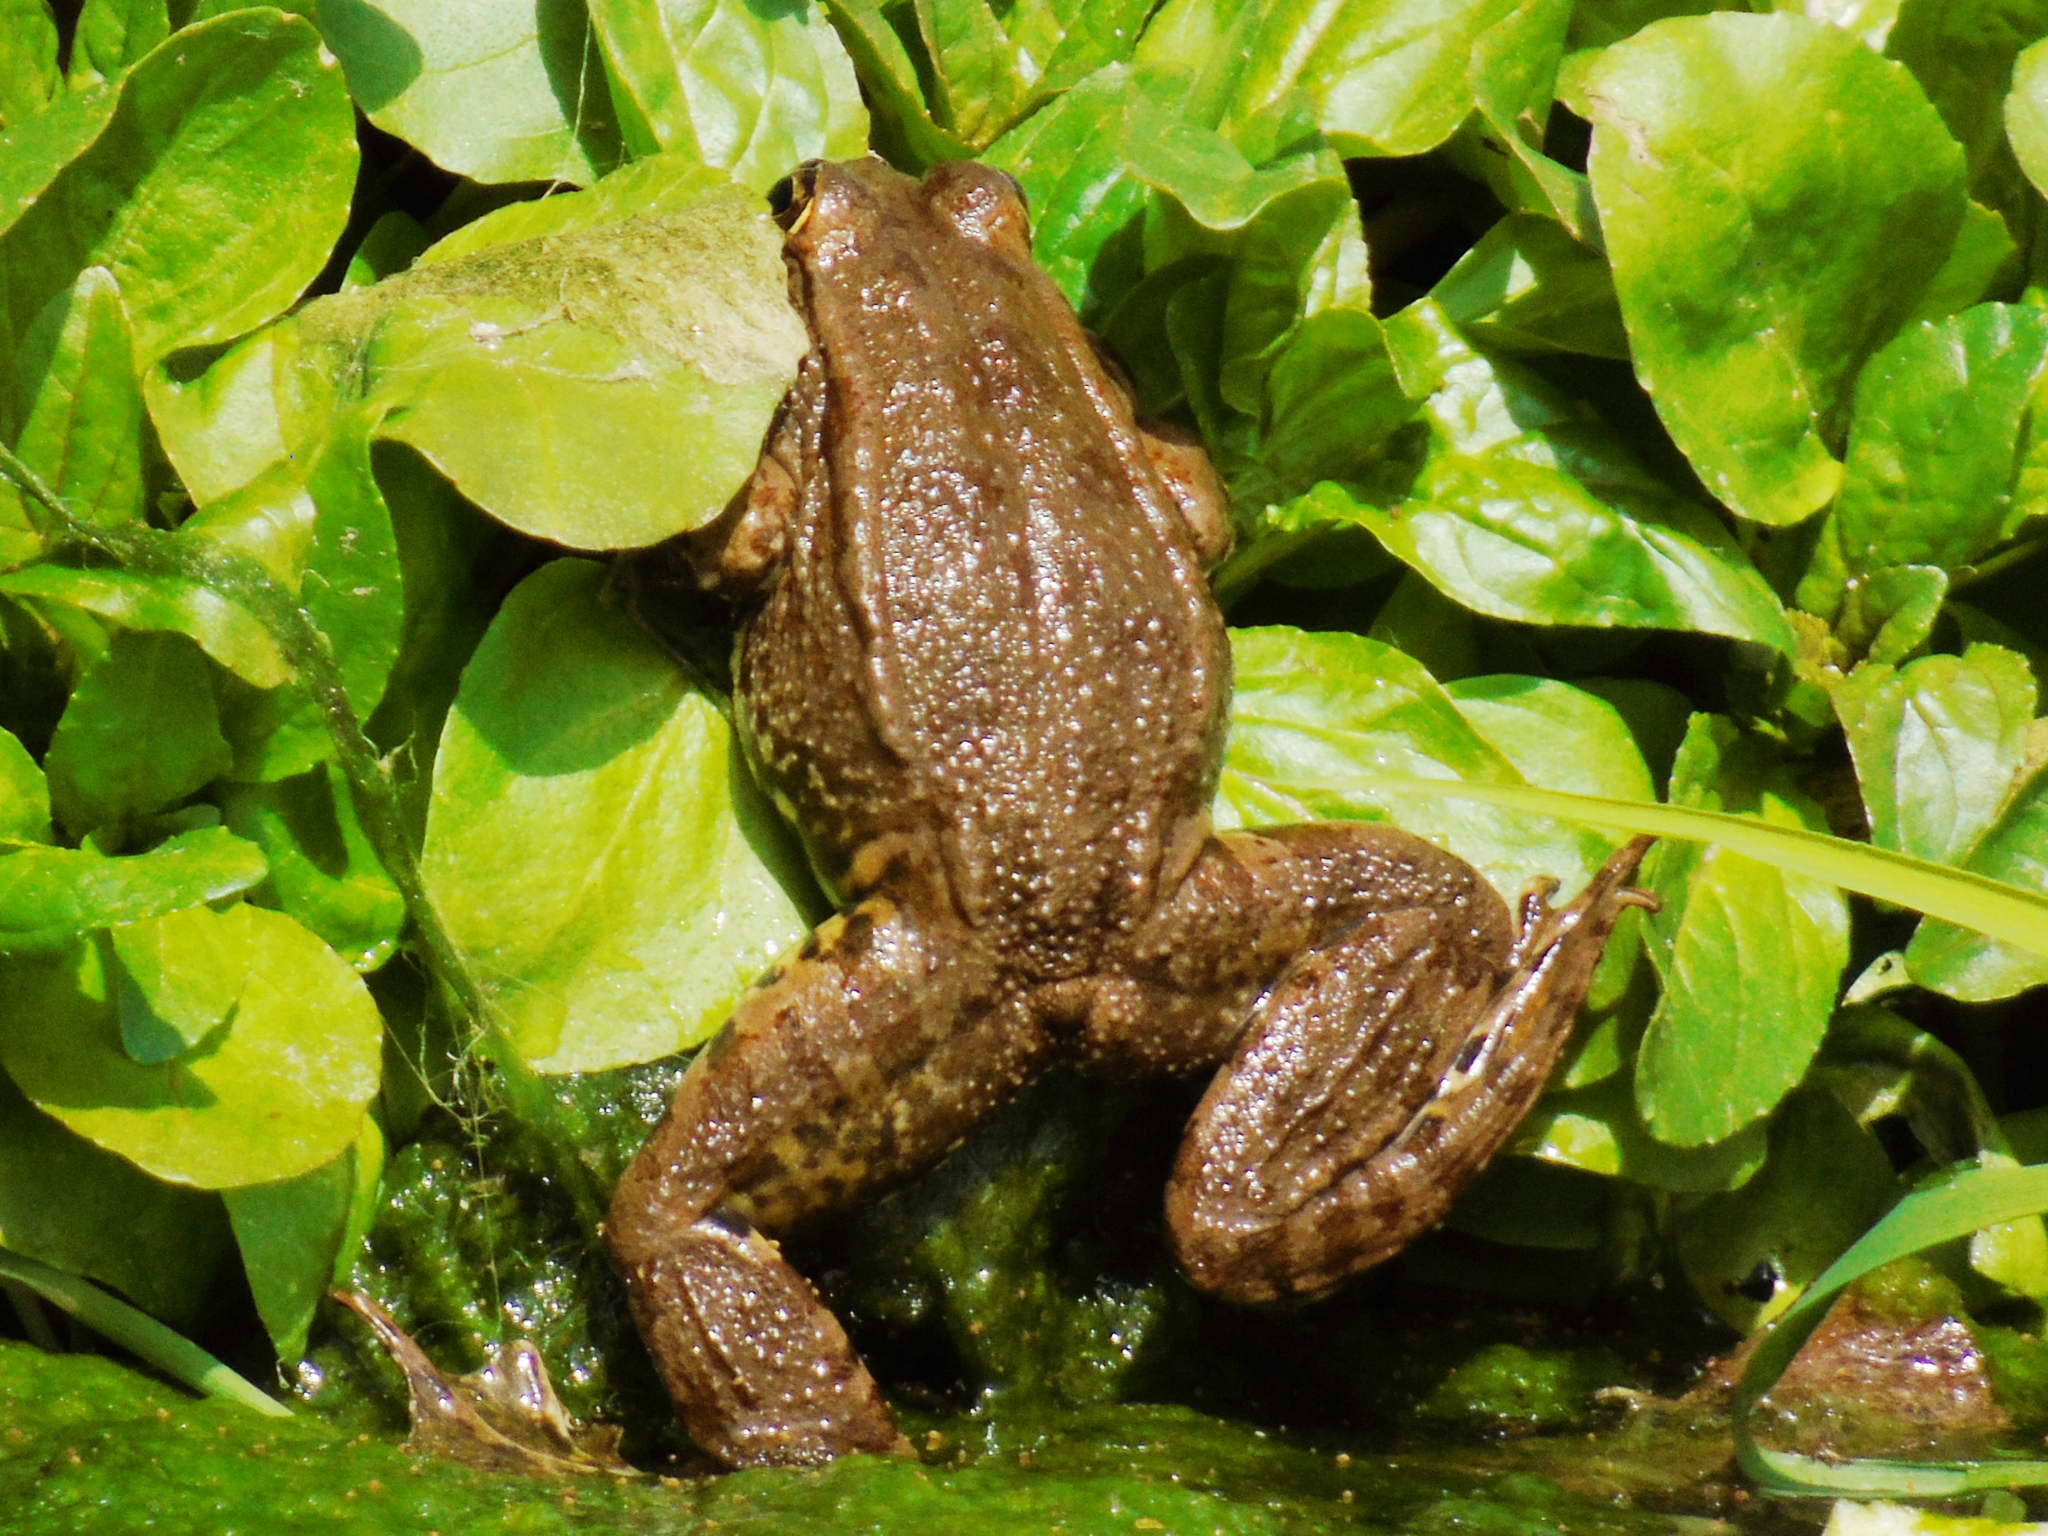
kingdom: Animalia
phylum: Chordata
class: Amphibia
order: Anura
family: Ranidae
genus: Pelophylax
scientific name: Pelophylax ridibundus
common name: Marsh frog
